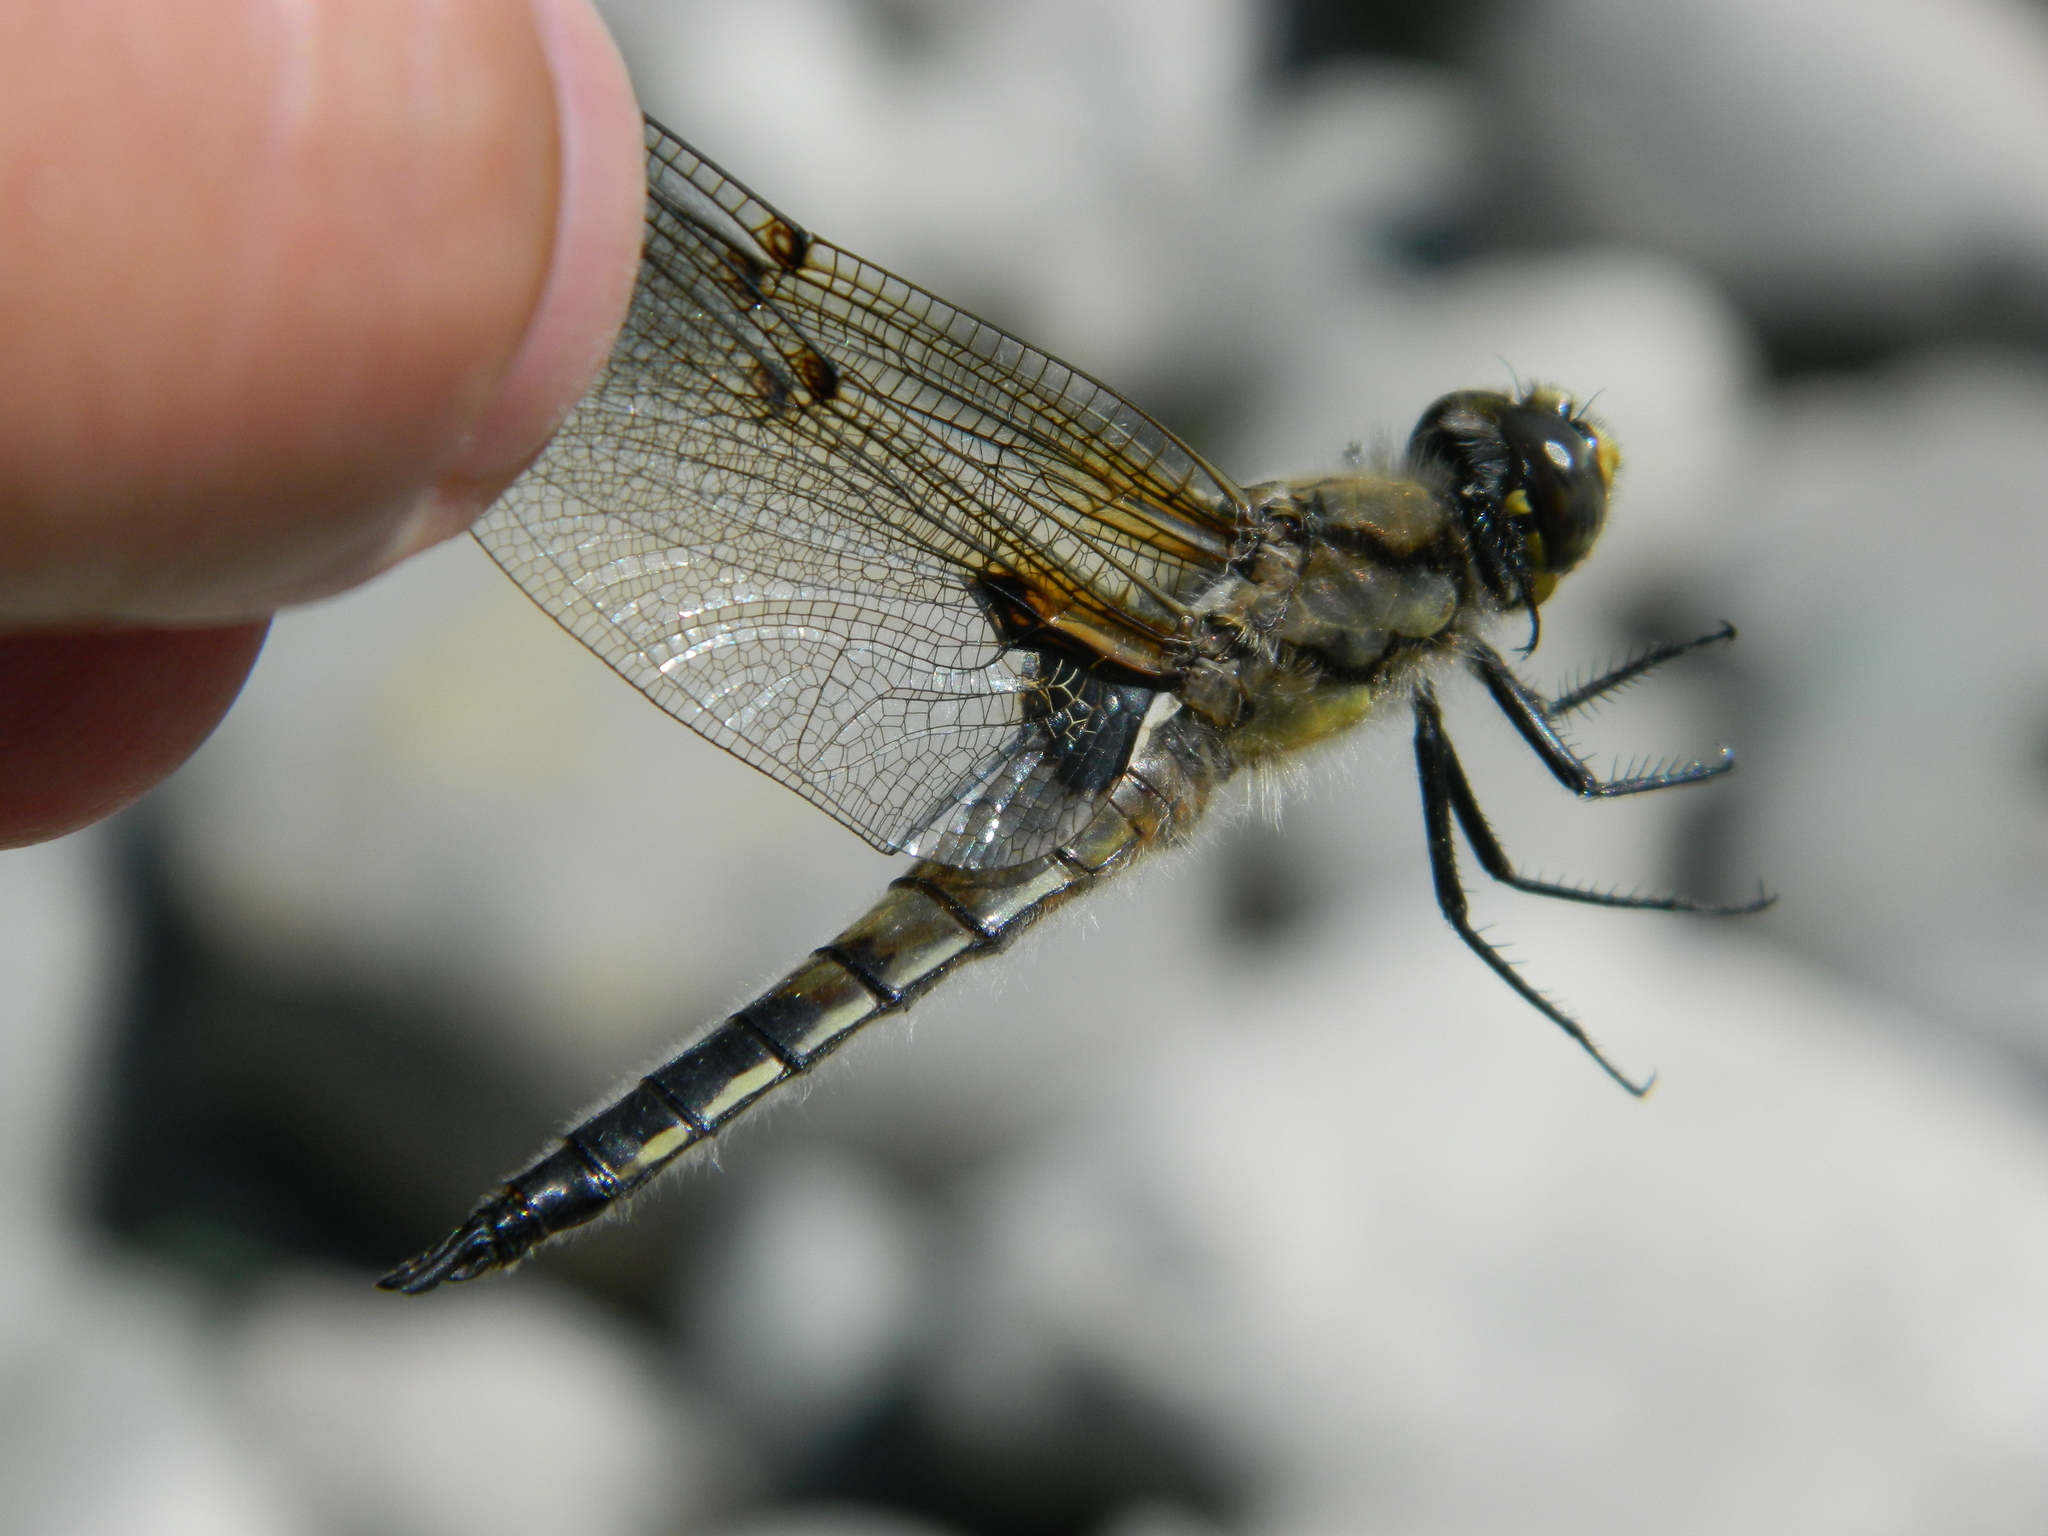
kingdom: Animalia
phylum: Arthropoda
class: Insecta
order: Odonata
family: Libellulidae
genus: Libellula
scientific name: Libellula quadrimaculata
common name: Four-spotted chaser
